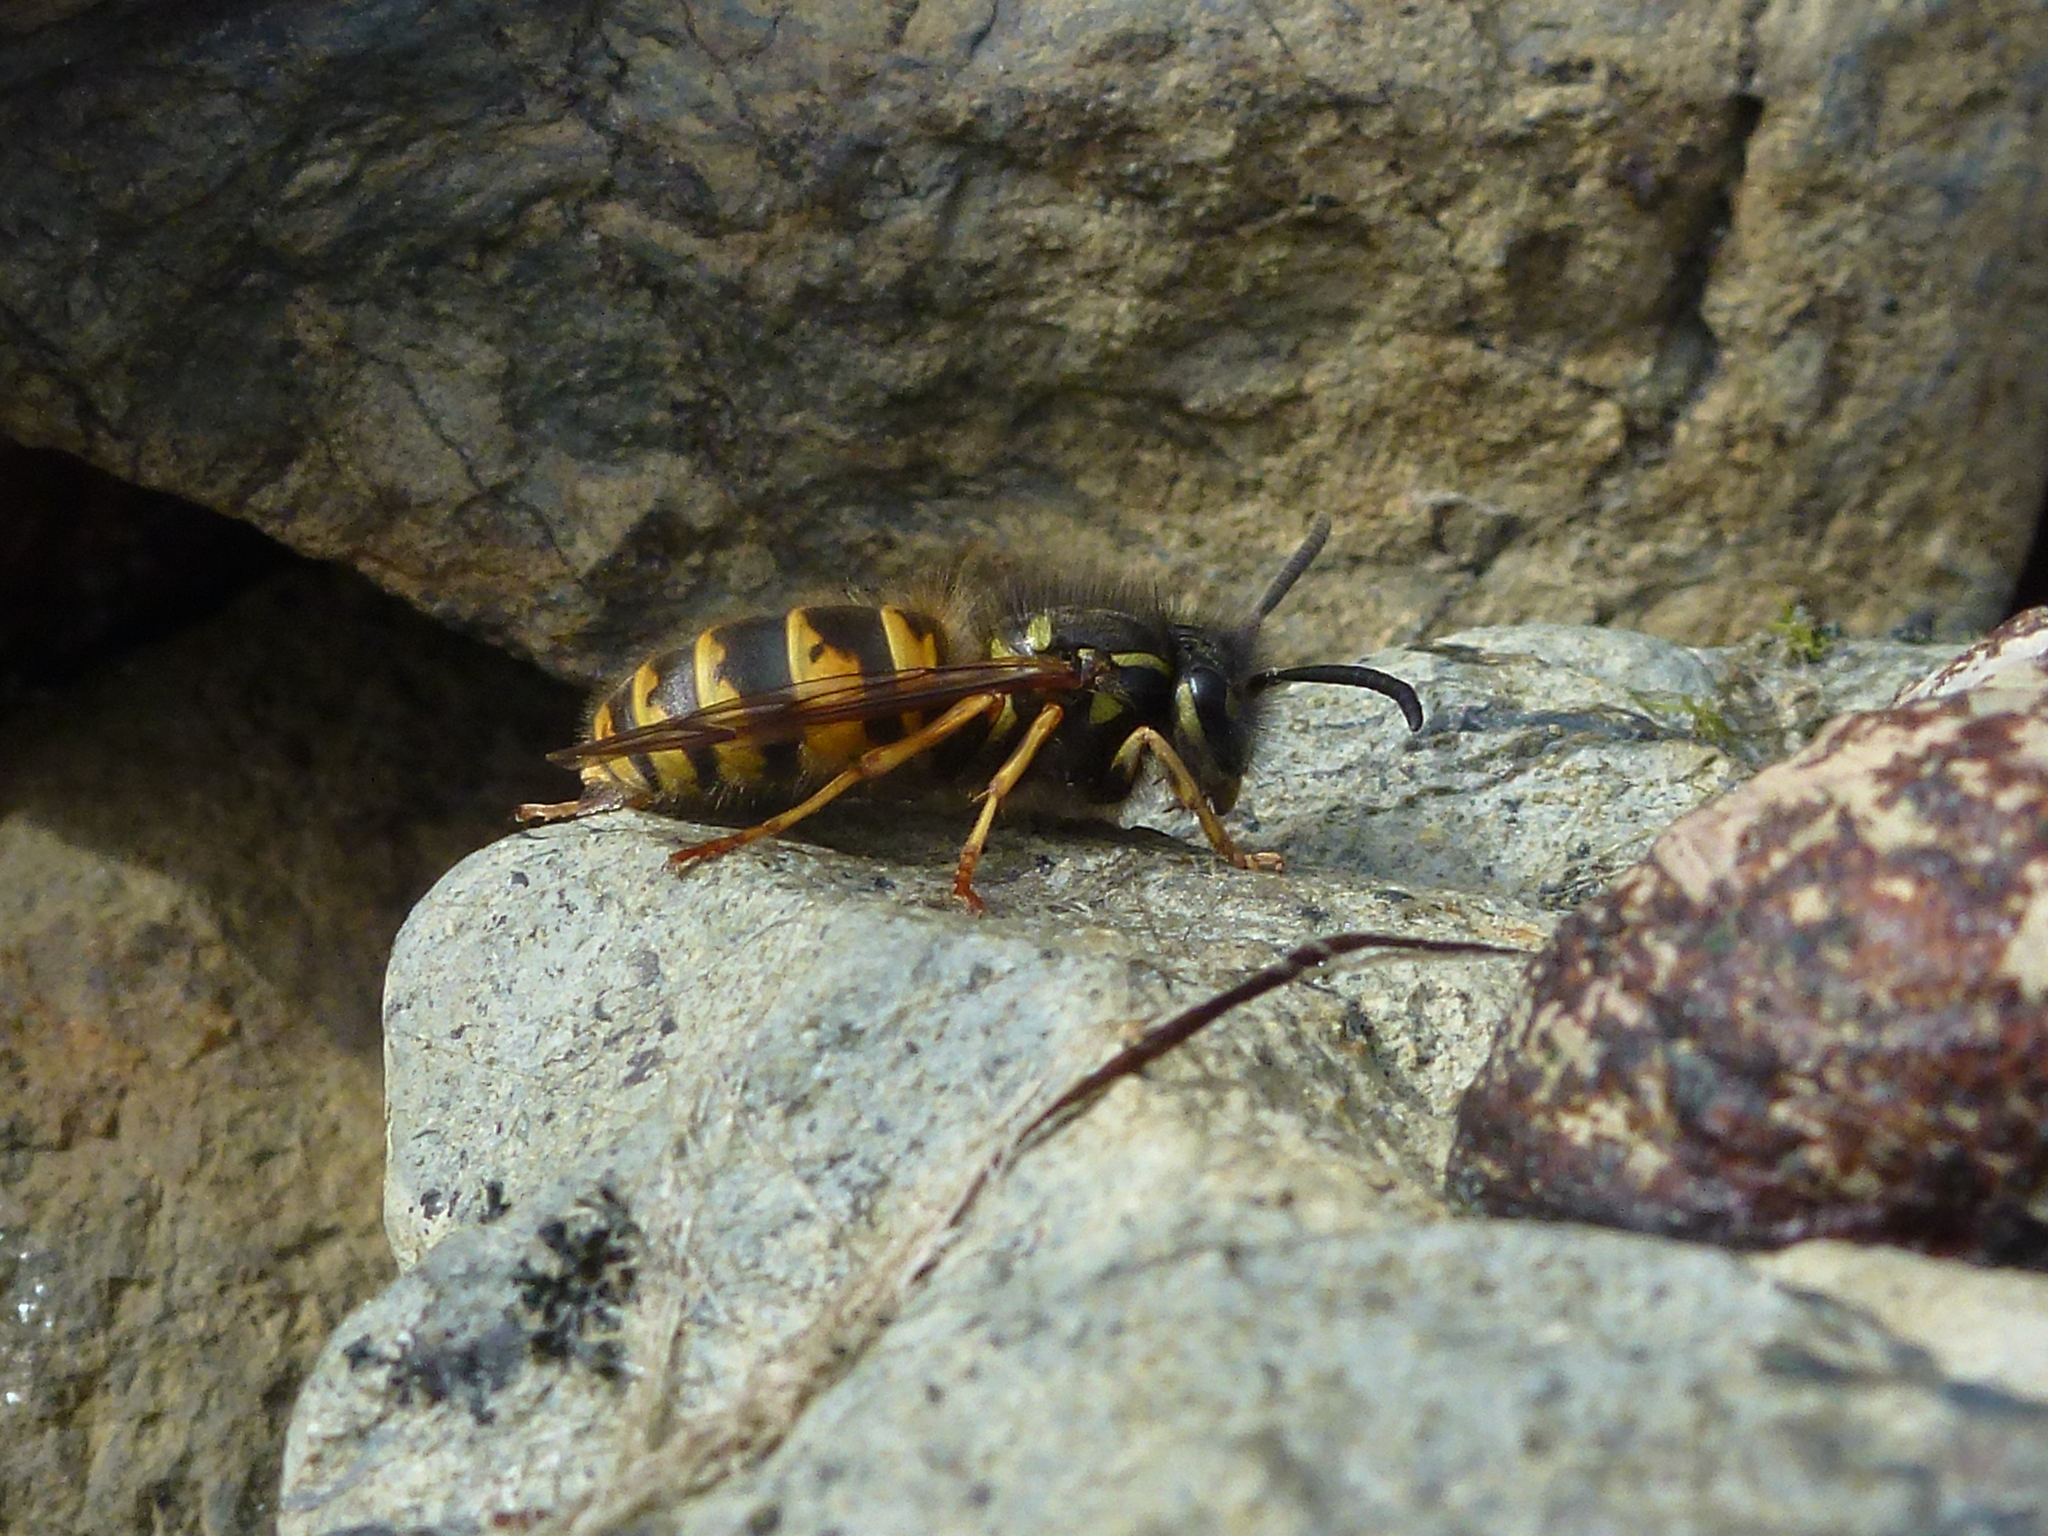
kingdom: Animalia
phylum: Arthropoda
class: Insecta
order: Hymenoptera
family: Vespidae
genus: Vespula
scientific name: Vespula vulgaris
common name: Common wasp
